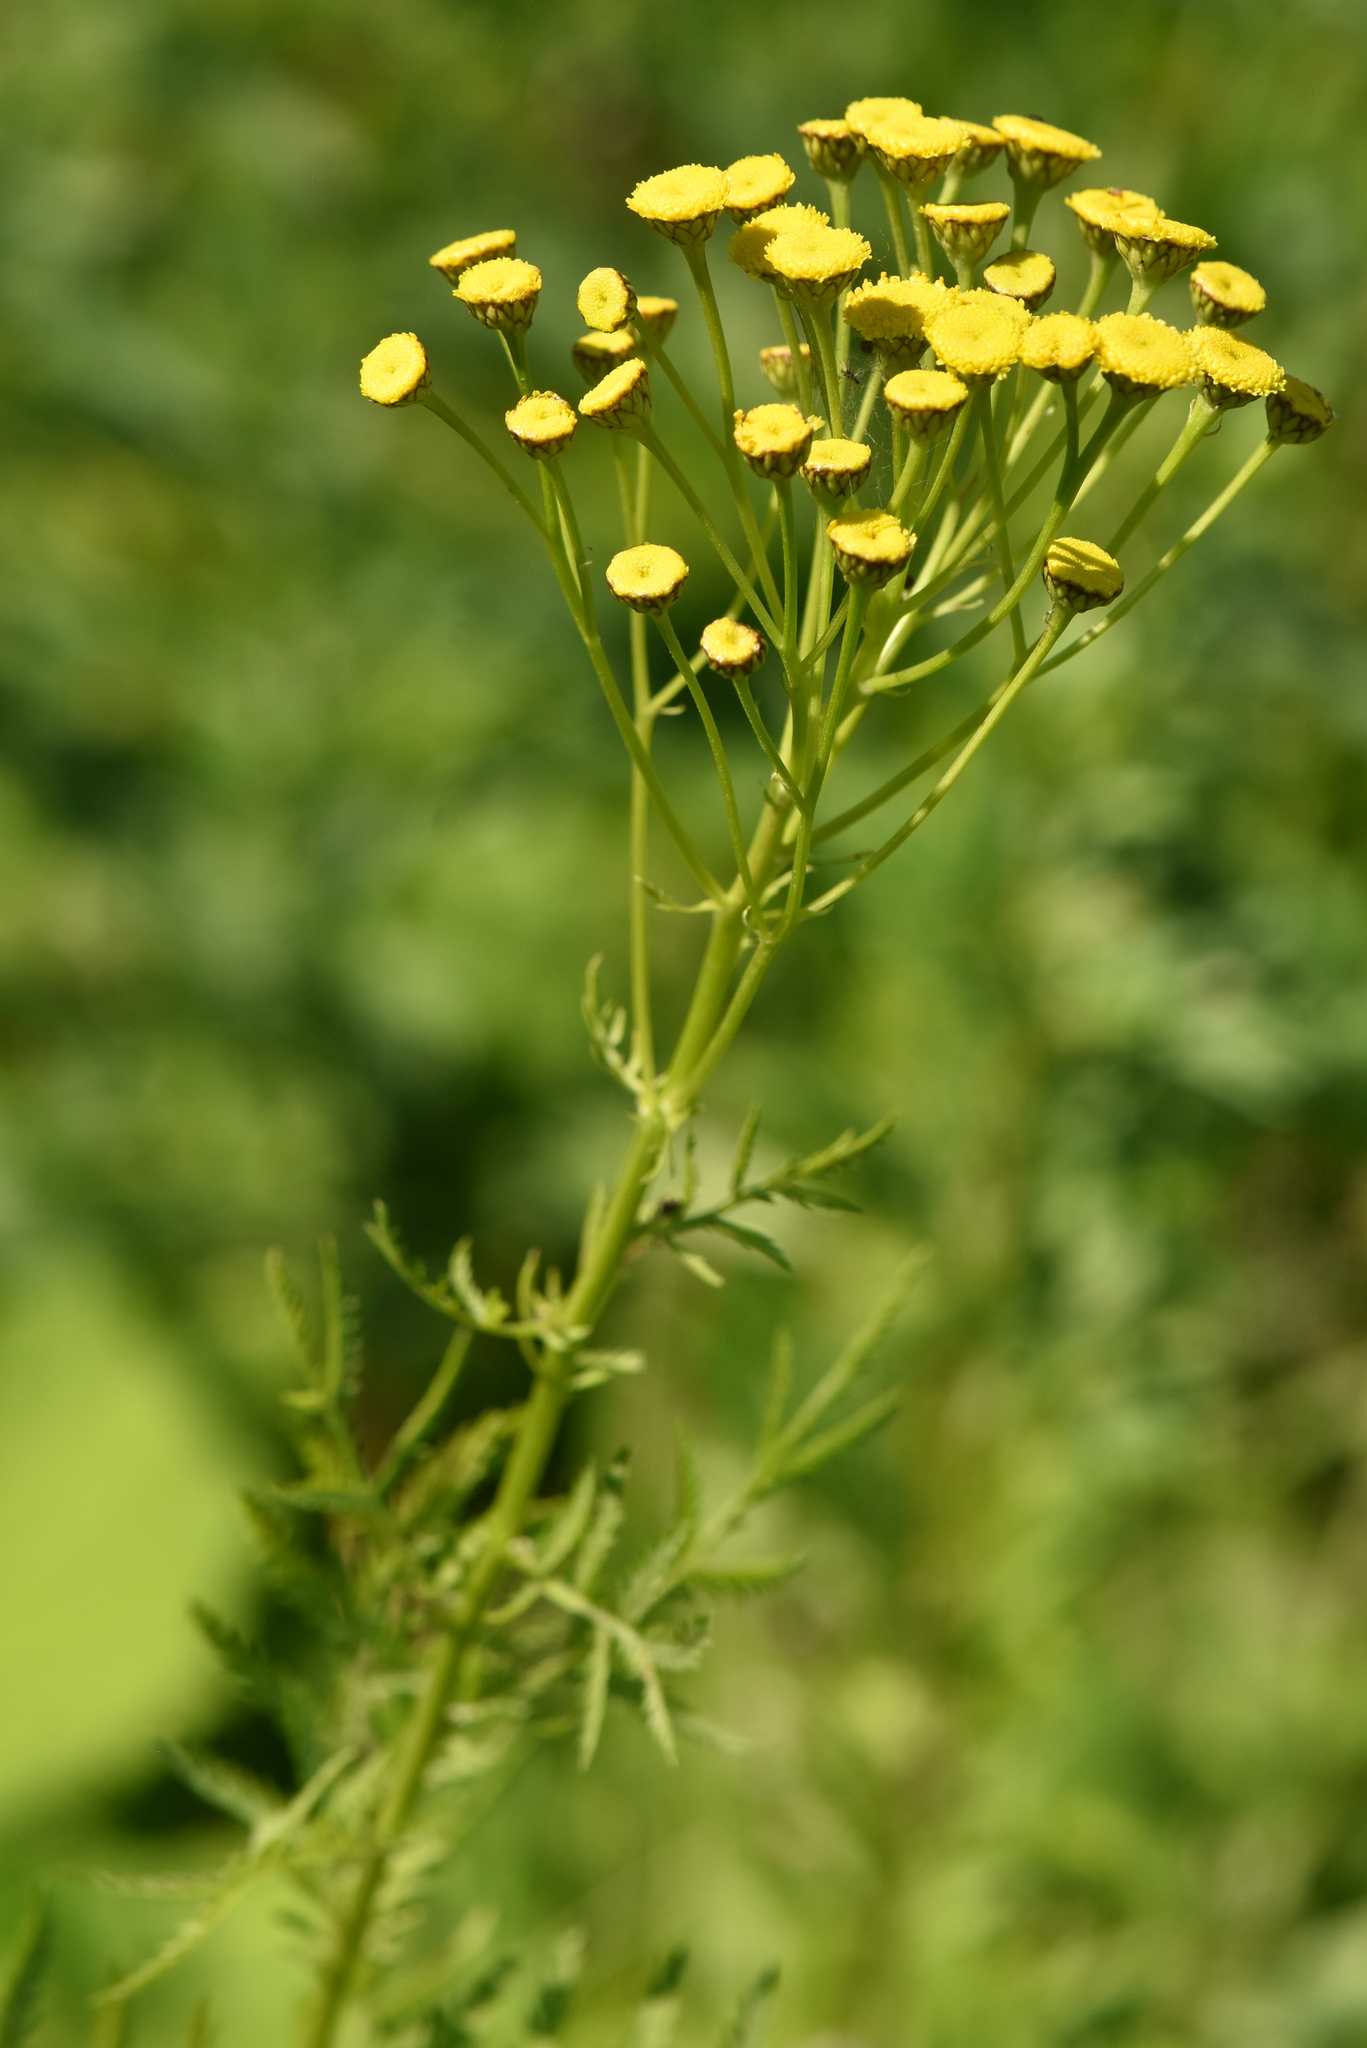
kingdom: Plantae
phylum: Tracheophyta
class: Magnoliopsida
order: Asterales
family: Asteraceae
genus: Tanacetum
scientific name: Tanacetum vulgare
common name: Common tansy
